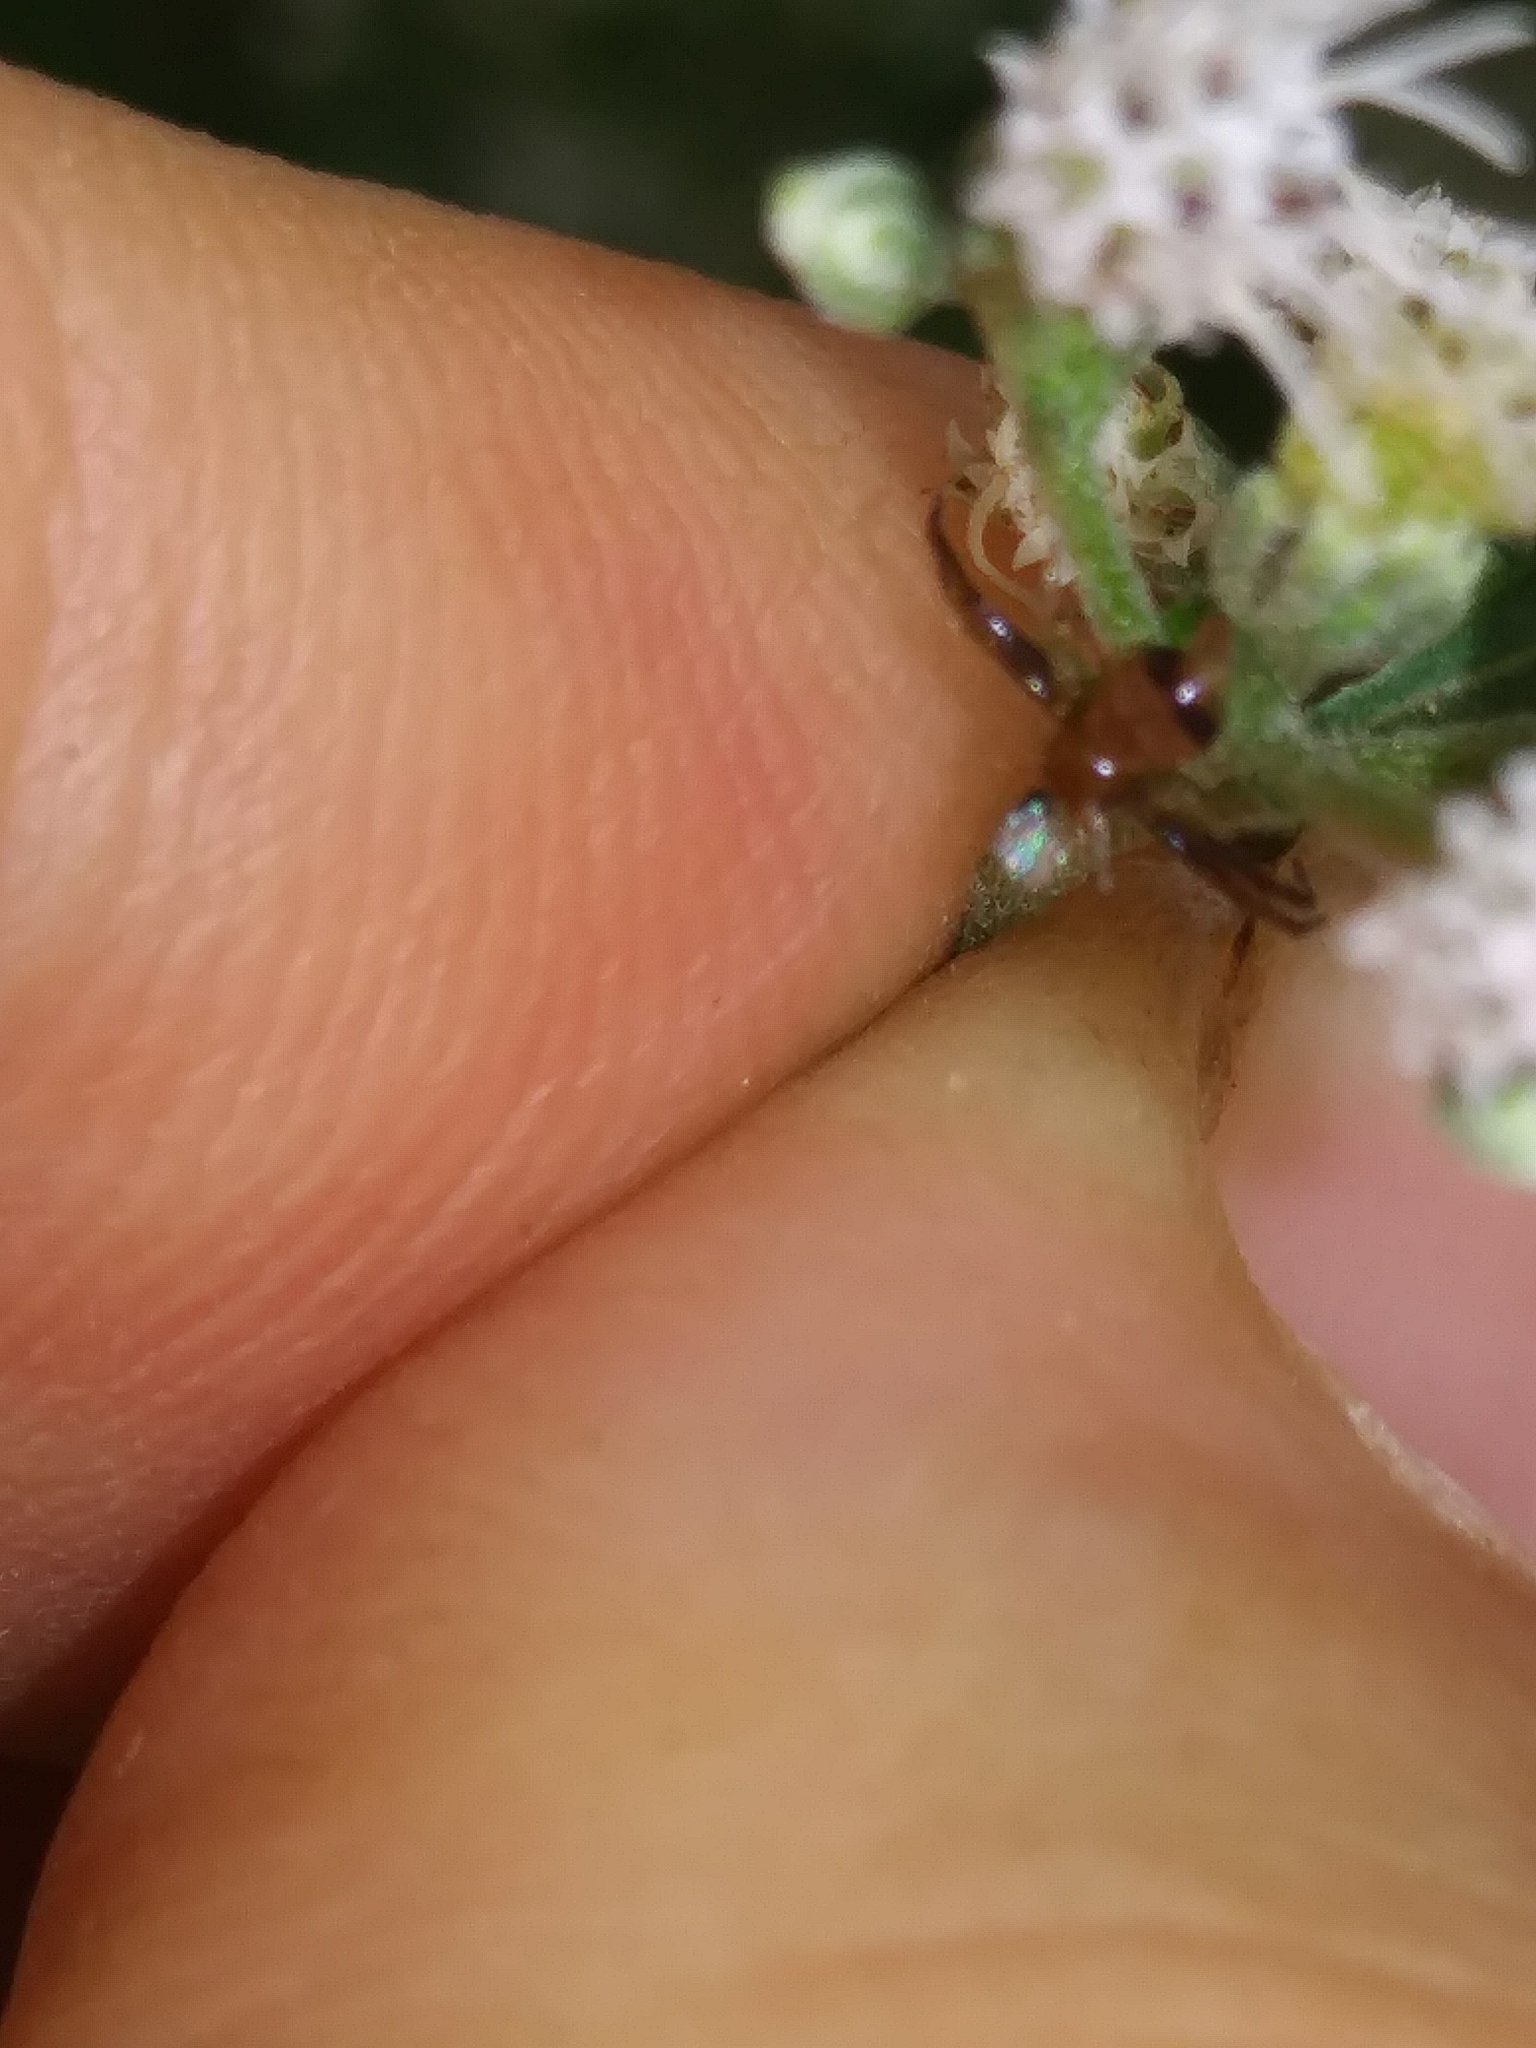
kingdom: Animalia
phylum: Arthropoda
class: Arachnida
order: Araneae
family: Thomisidae
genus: Synema
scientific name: Synema parvulum
